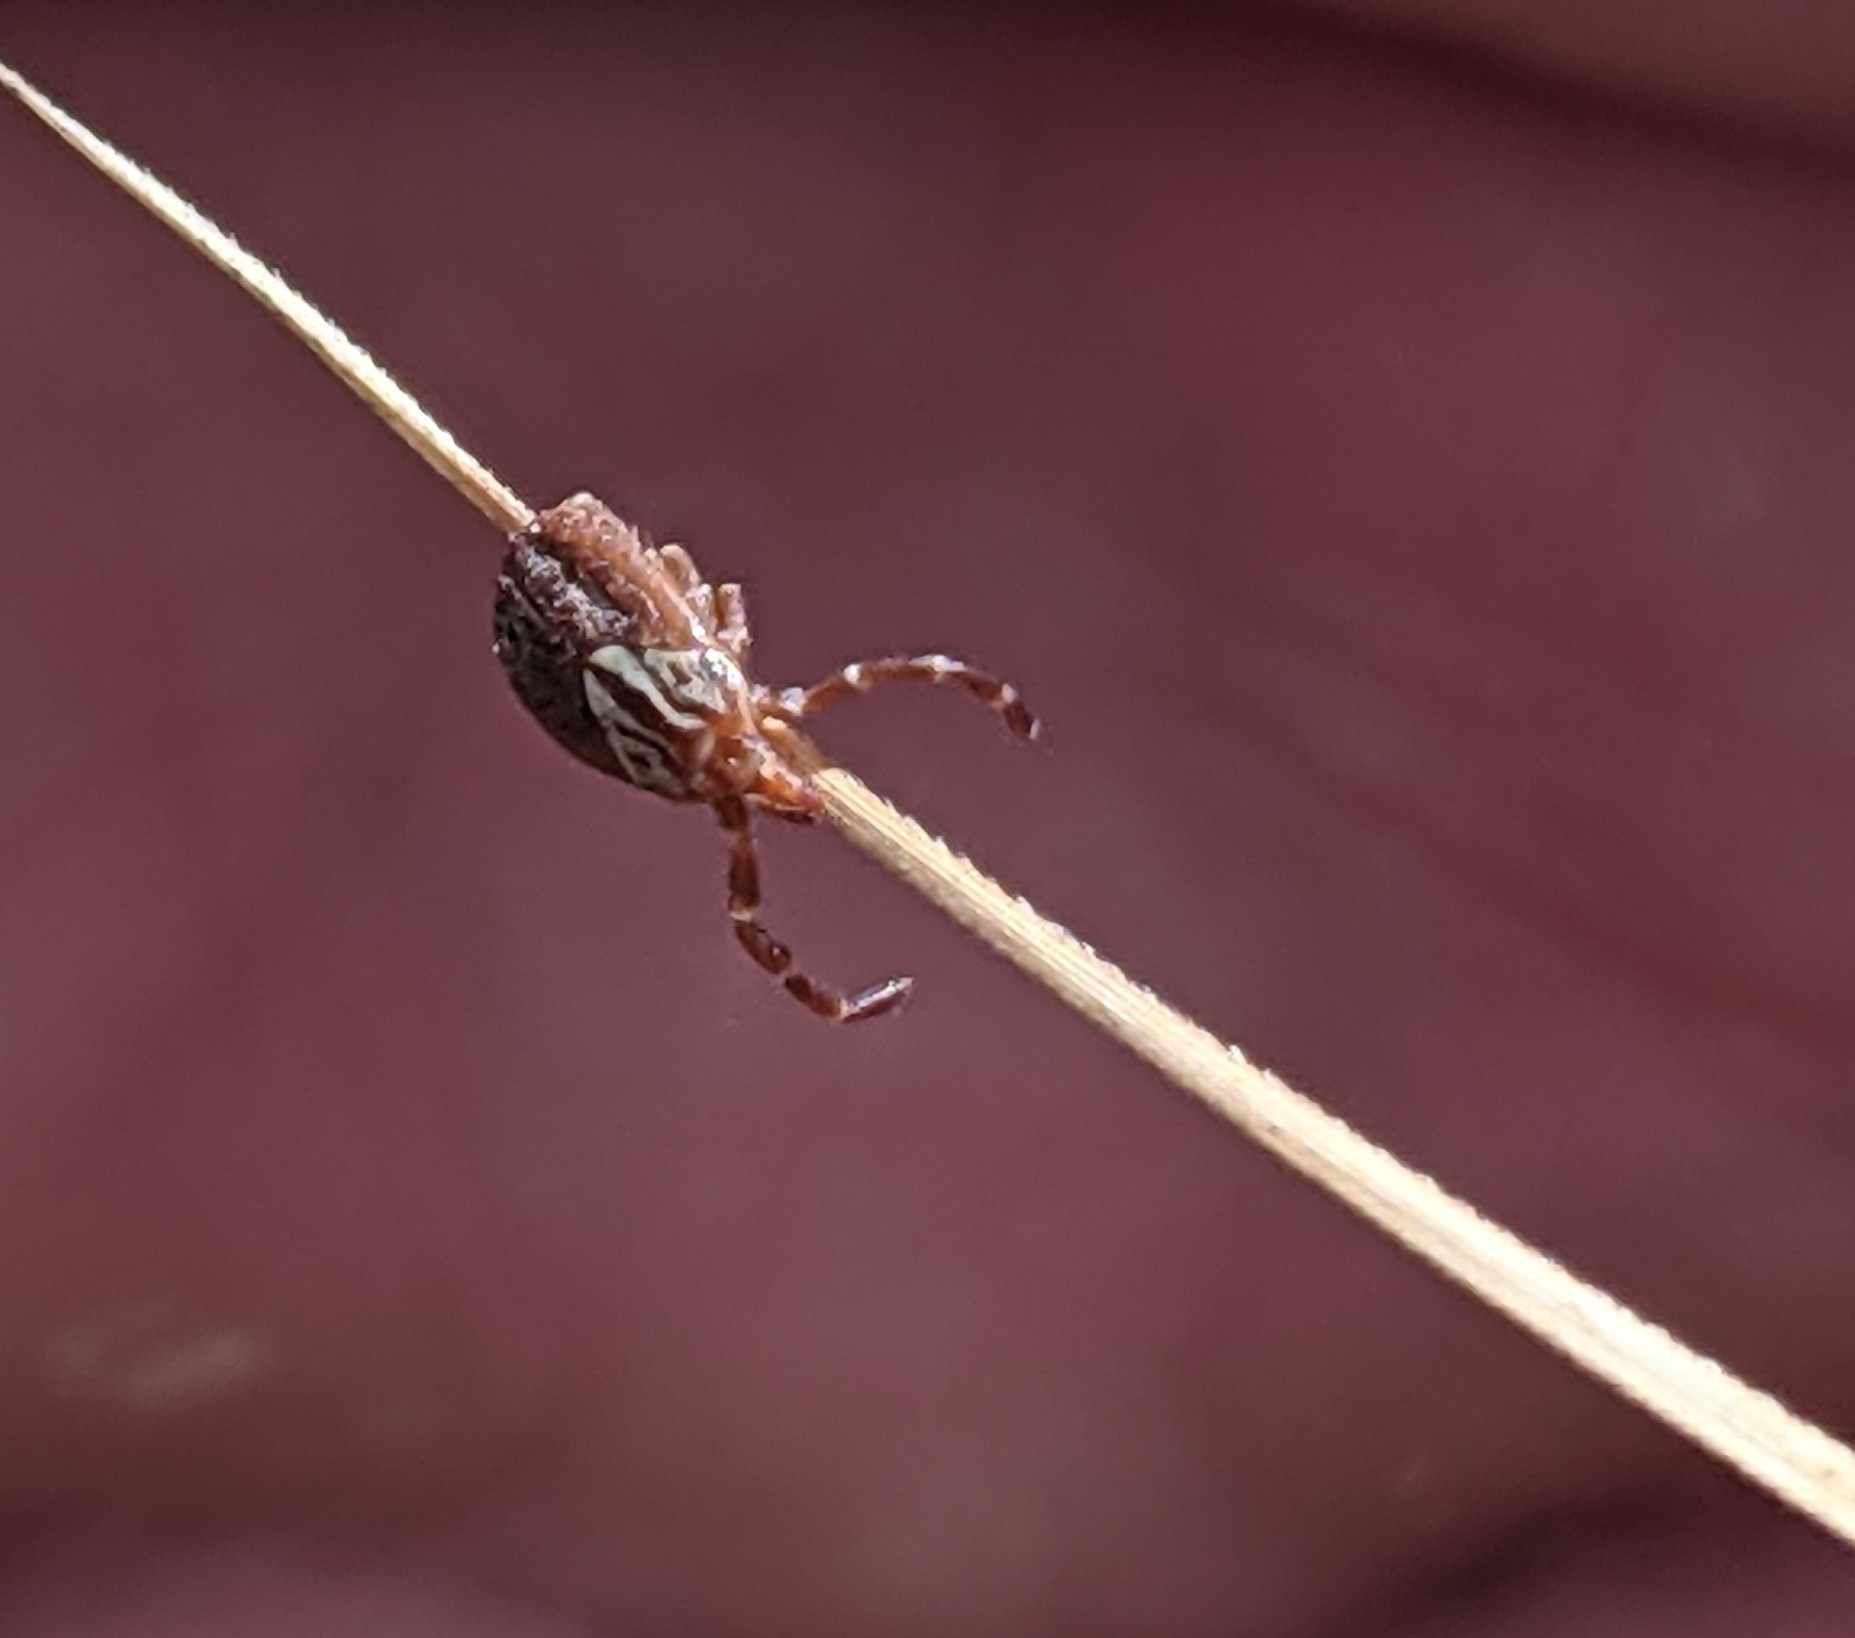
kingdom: Animalia
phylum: Arthropoda
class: Arachnida
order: Ixodida
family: Ixodidae
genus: Amblyomma
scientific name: Amblyomma maculatum
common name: Gulf coast tick
